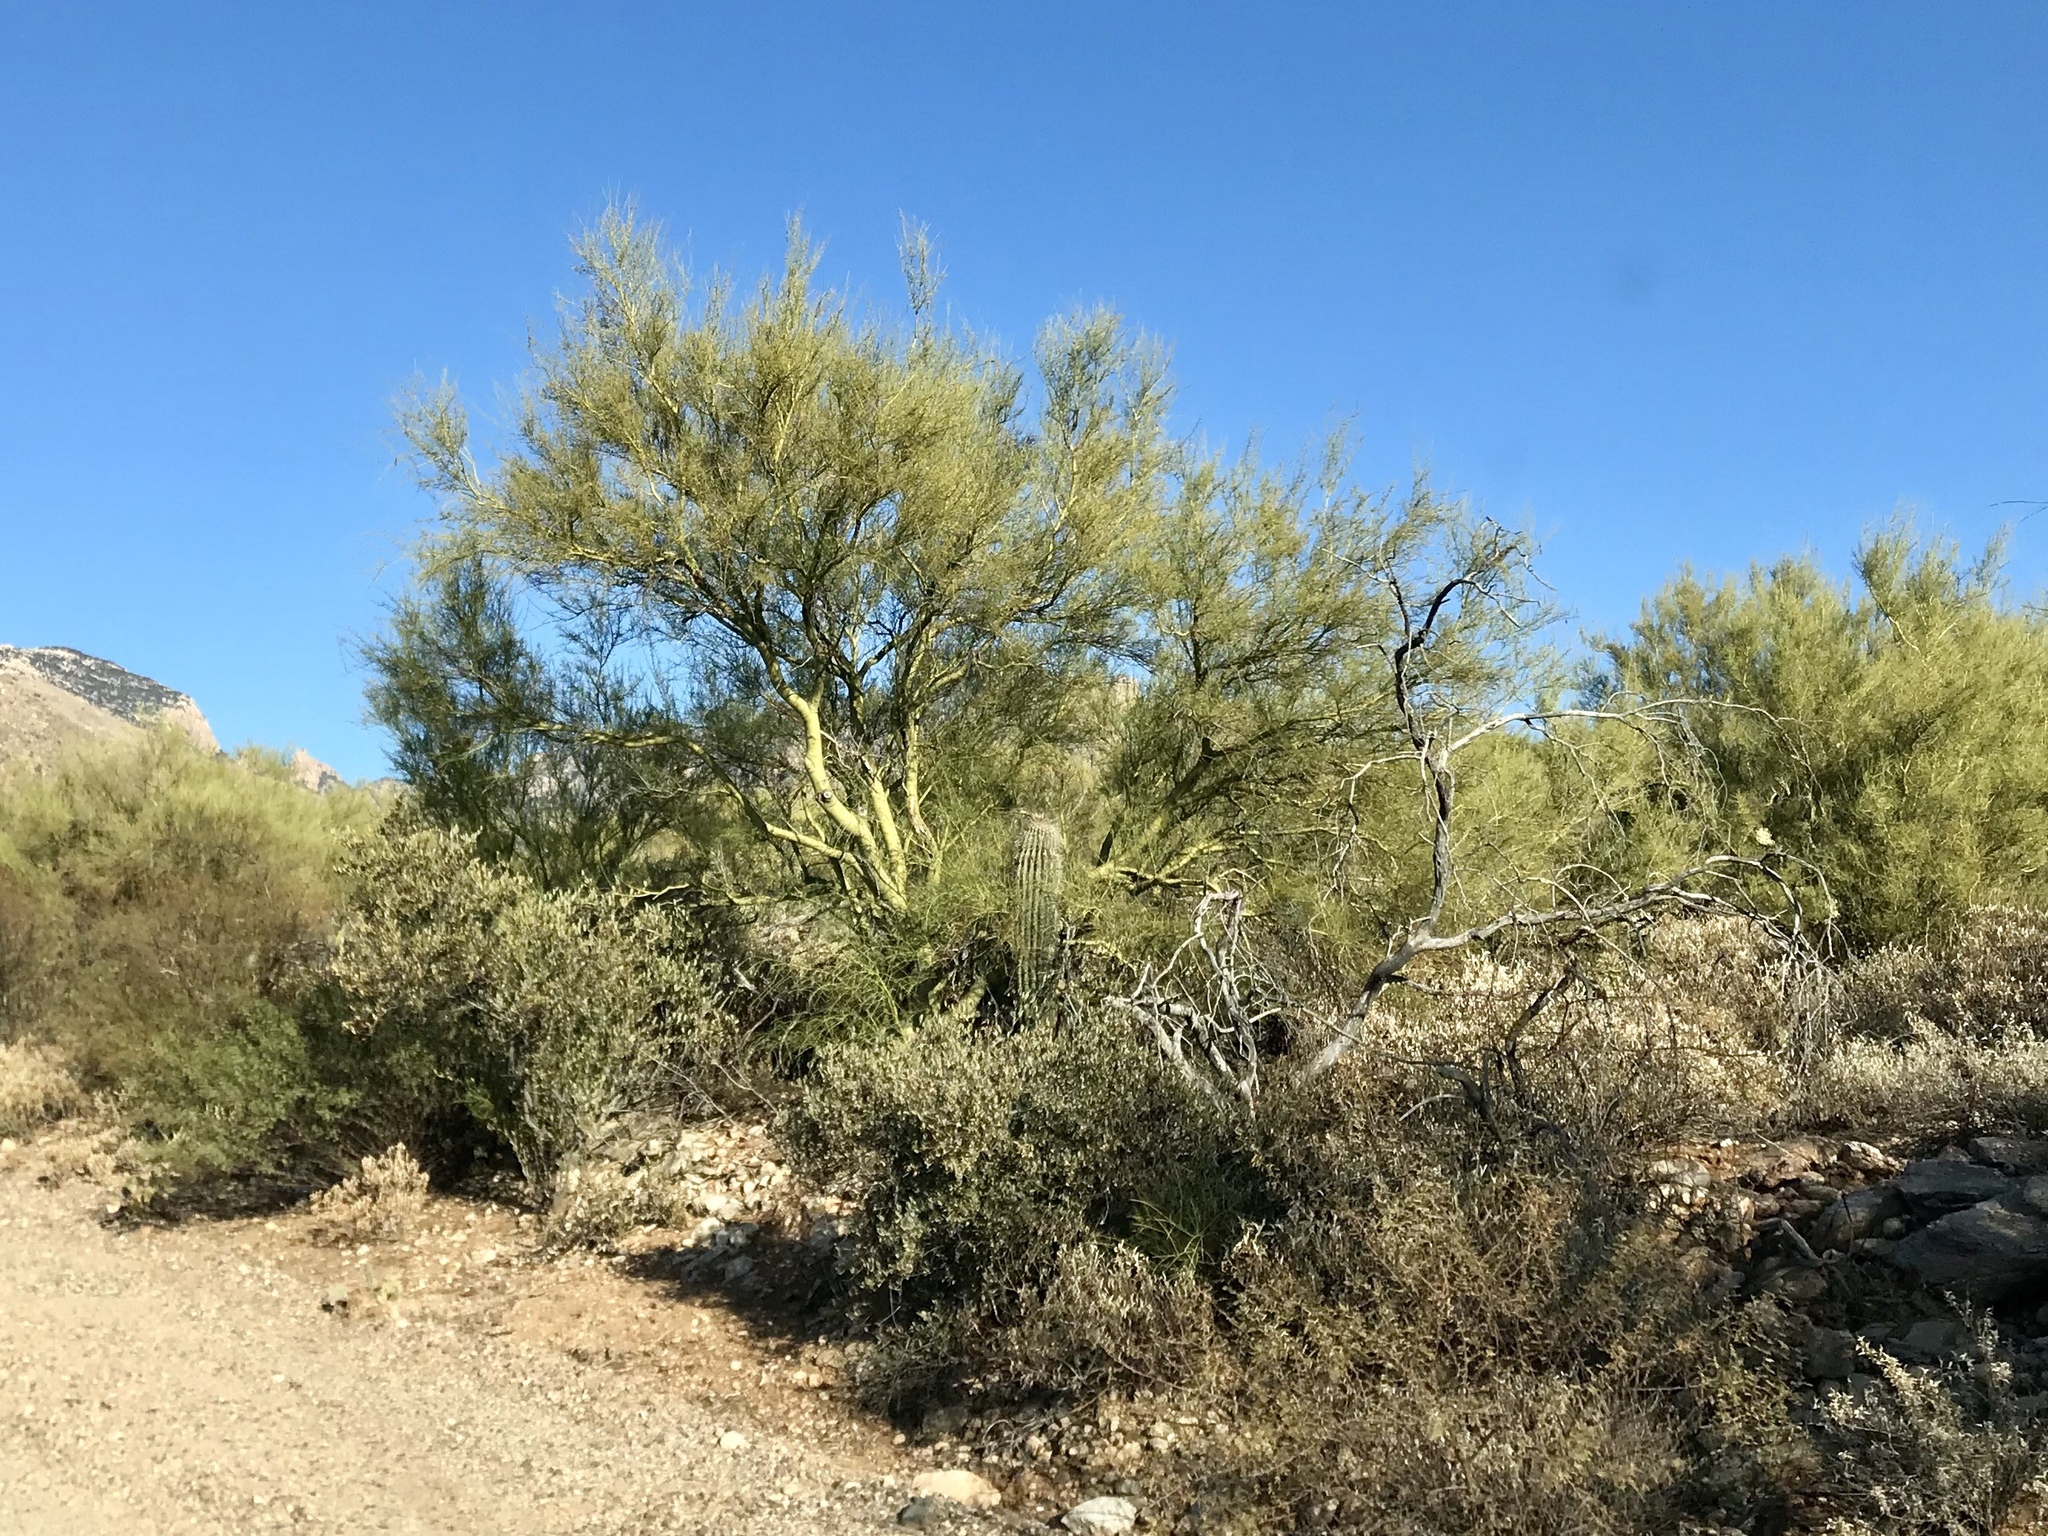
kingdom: Plantae
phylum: Tracheophyta
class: Magnoliopsida
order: Fabales
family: Fabaceae
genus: Parkinsonia
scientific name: Parkinsonia microphylla
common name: Yellow paloverde
